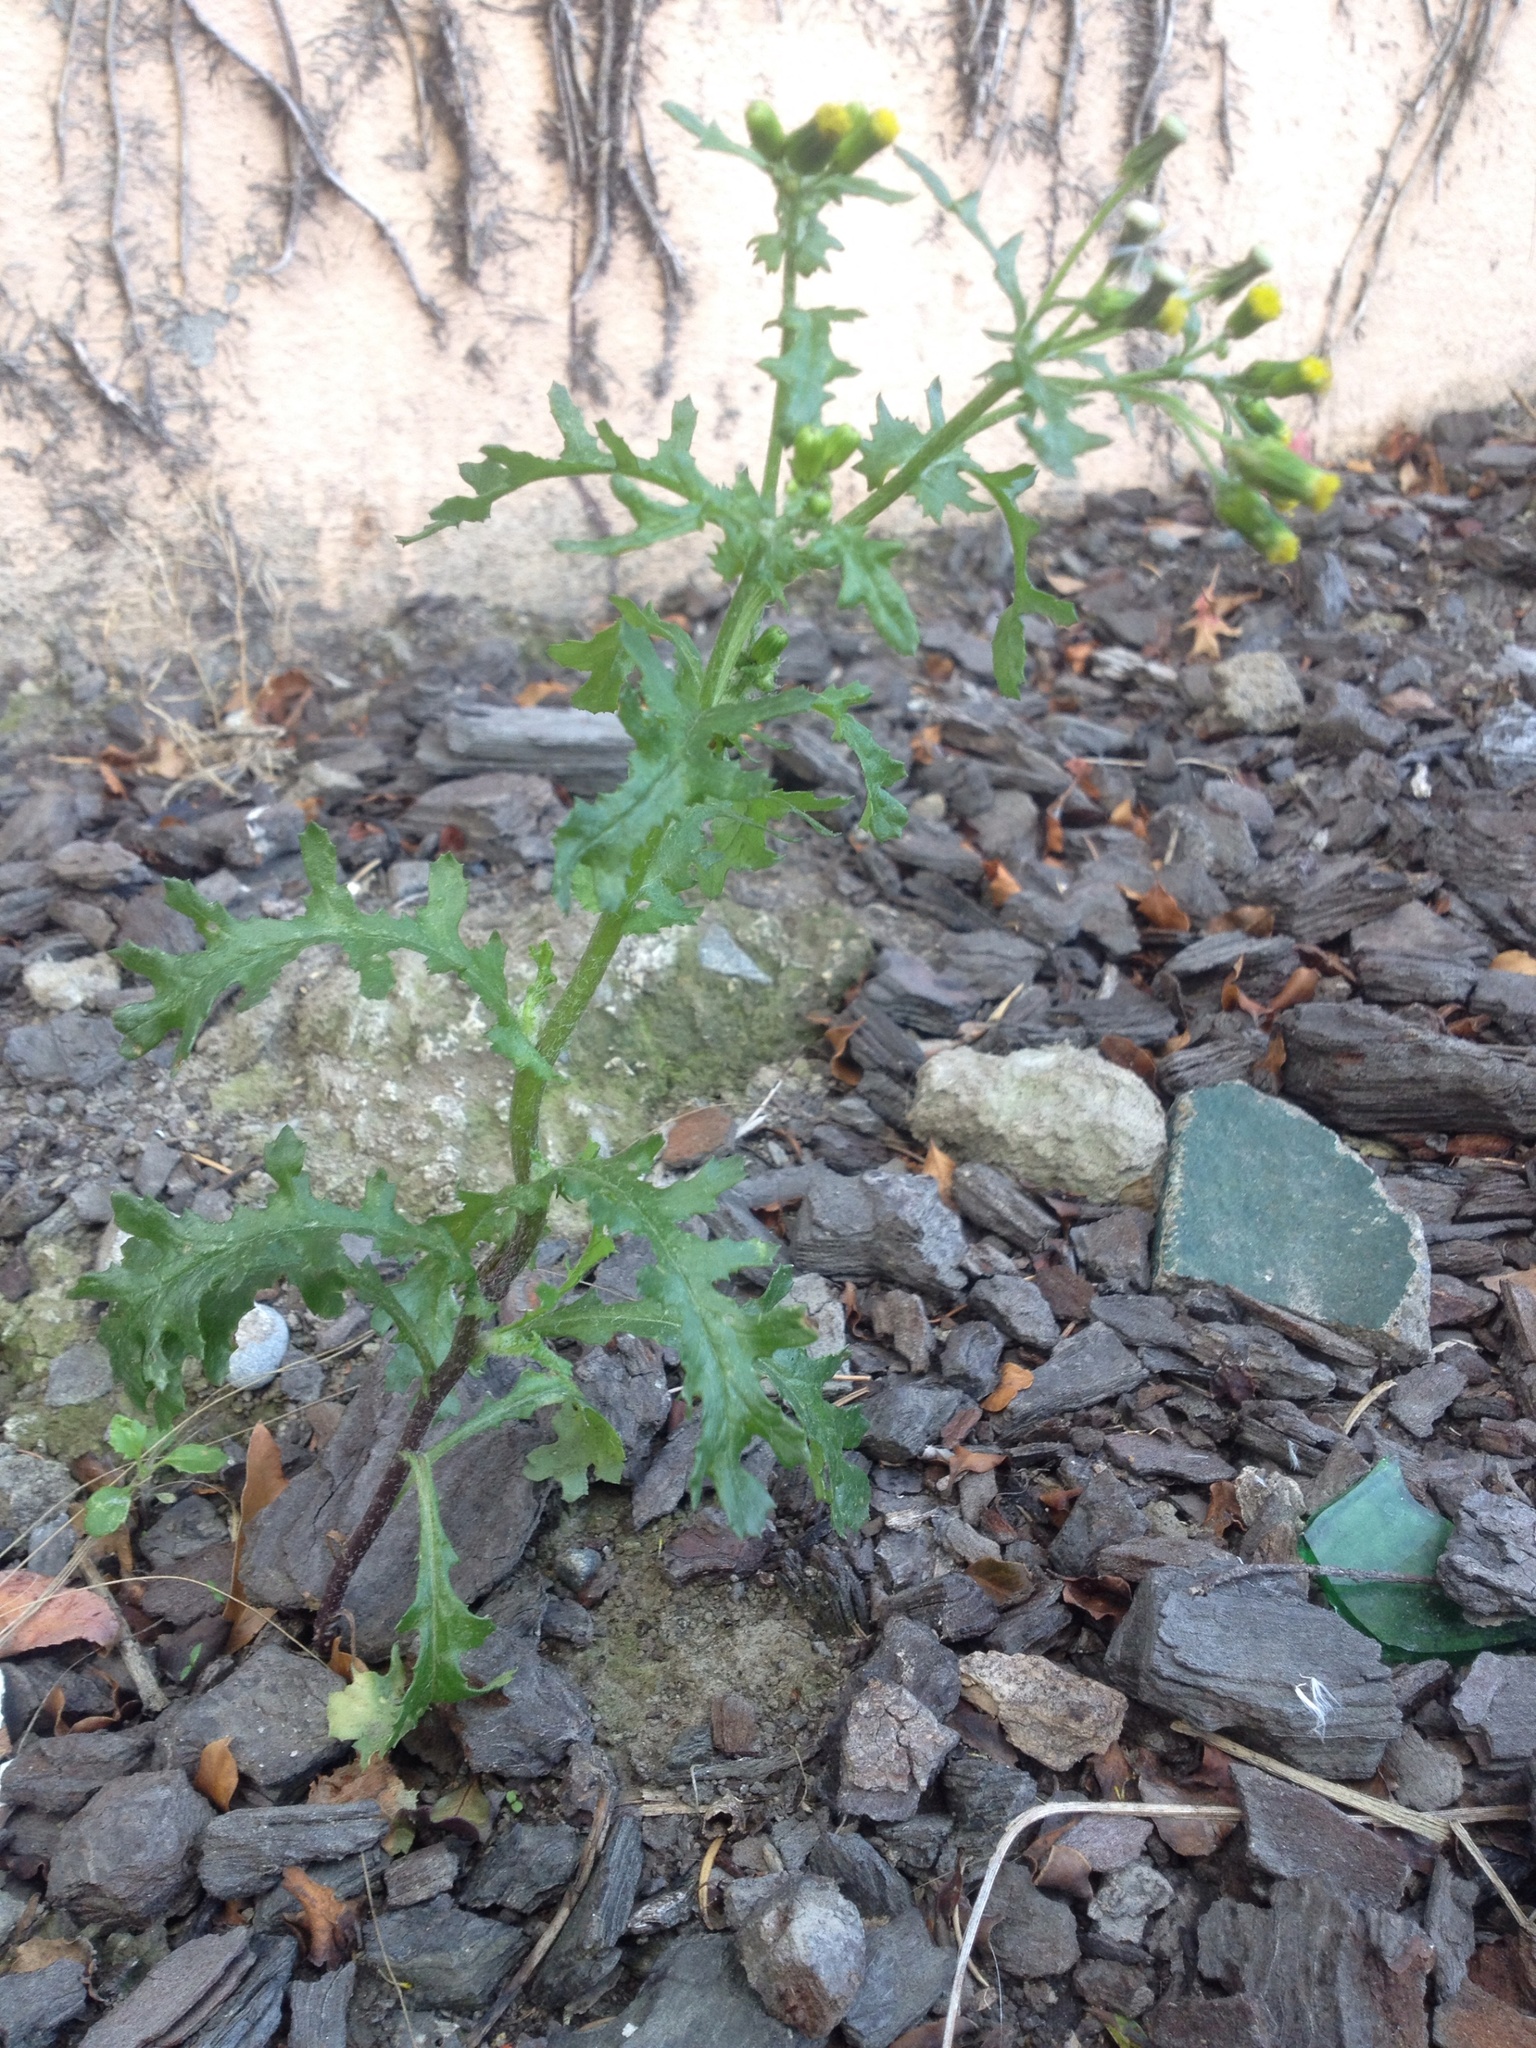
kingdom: Plantae
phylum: Tracheophyta
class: Magnoliopsida
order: Asterales
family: Asteraceae
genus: Senecio
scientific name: Senecio vulgaris
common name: Old-man-in-the-spring
